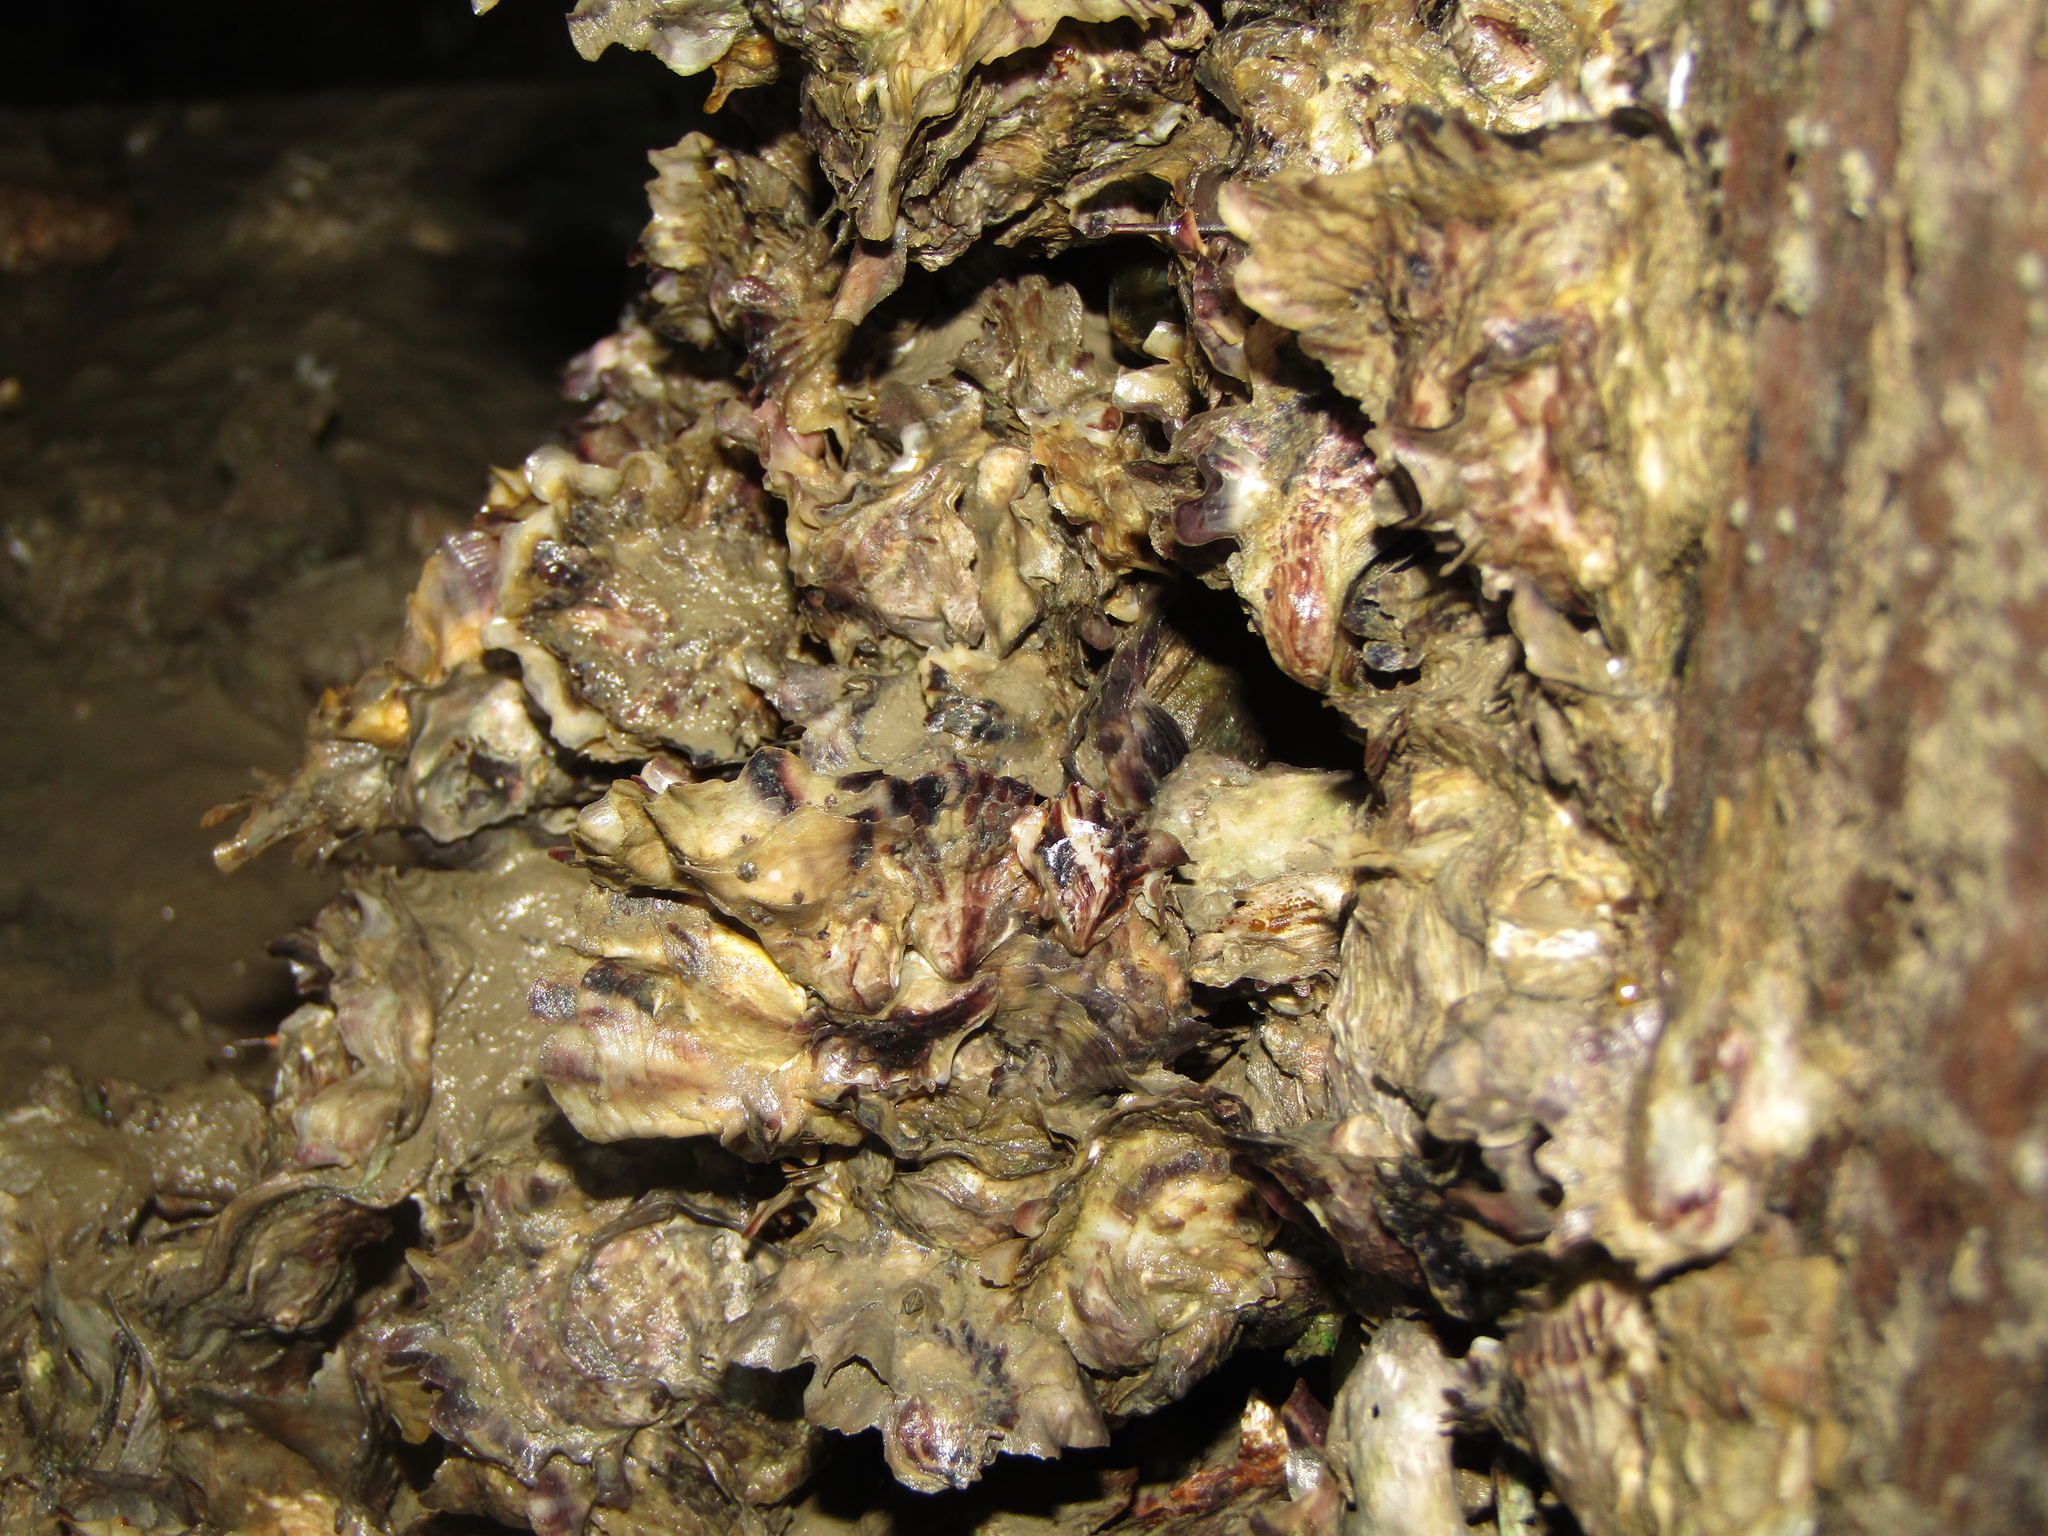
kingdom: Animalia
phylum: Mollusca
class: Bivalvia
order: Ostreida
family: Ostreidae
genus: Magallana
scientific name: Magallana gigas
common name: Pacific oyster
